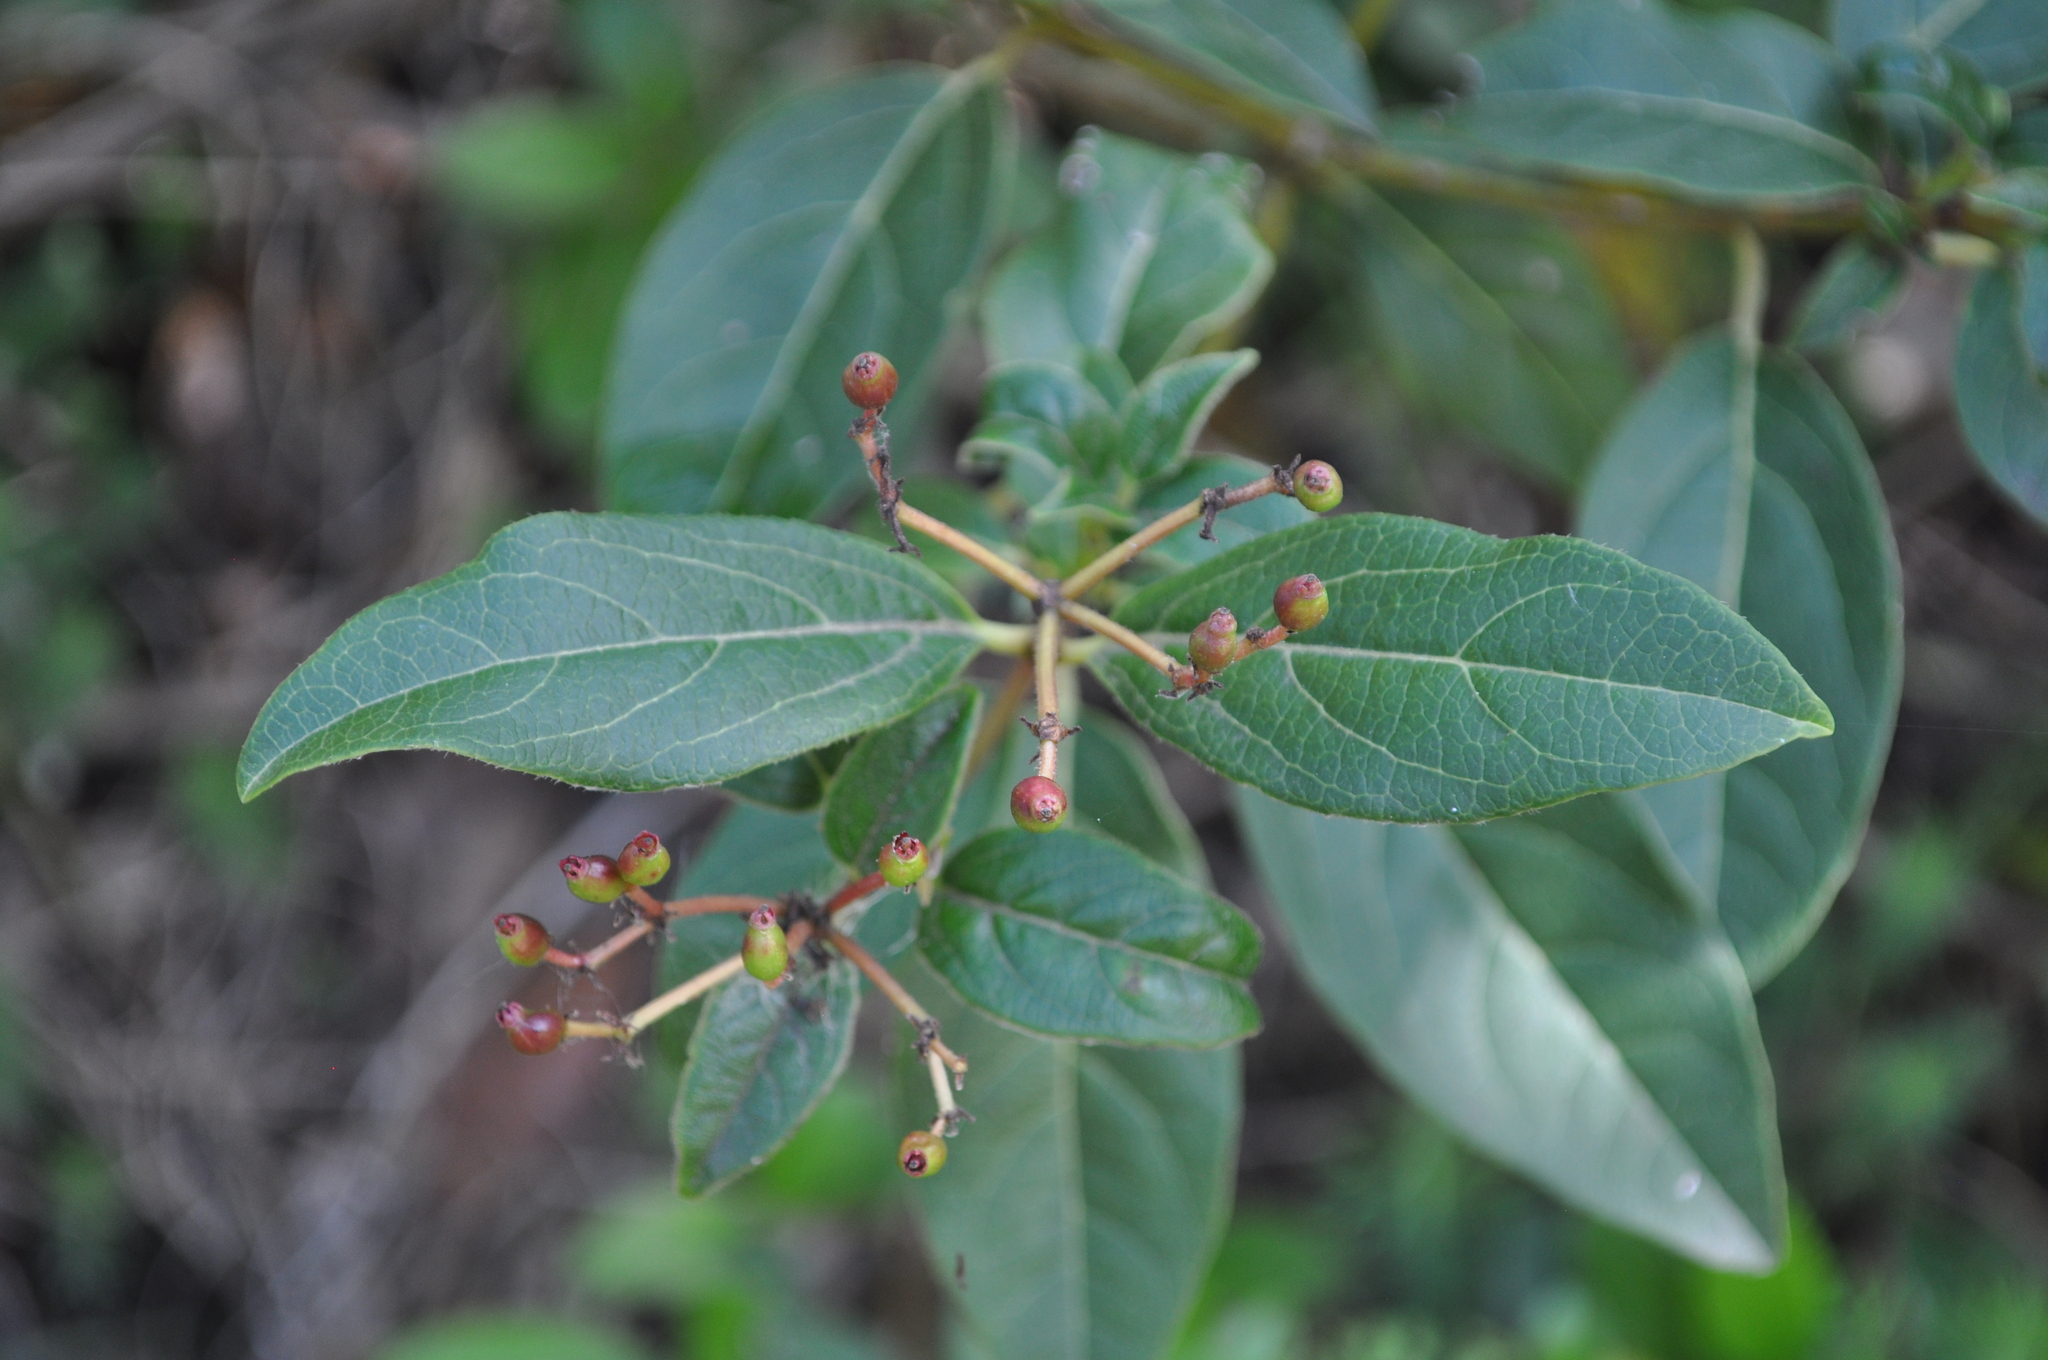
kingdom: Plantae
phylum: Tracheophyta
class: Magnoliopsida
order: Dipsacales
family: Viburnaceae
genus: Viburnum
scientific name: Viburnum tinus
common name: Laurustinus
